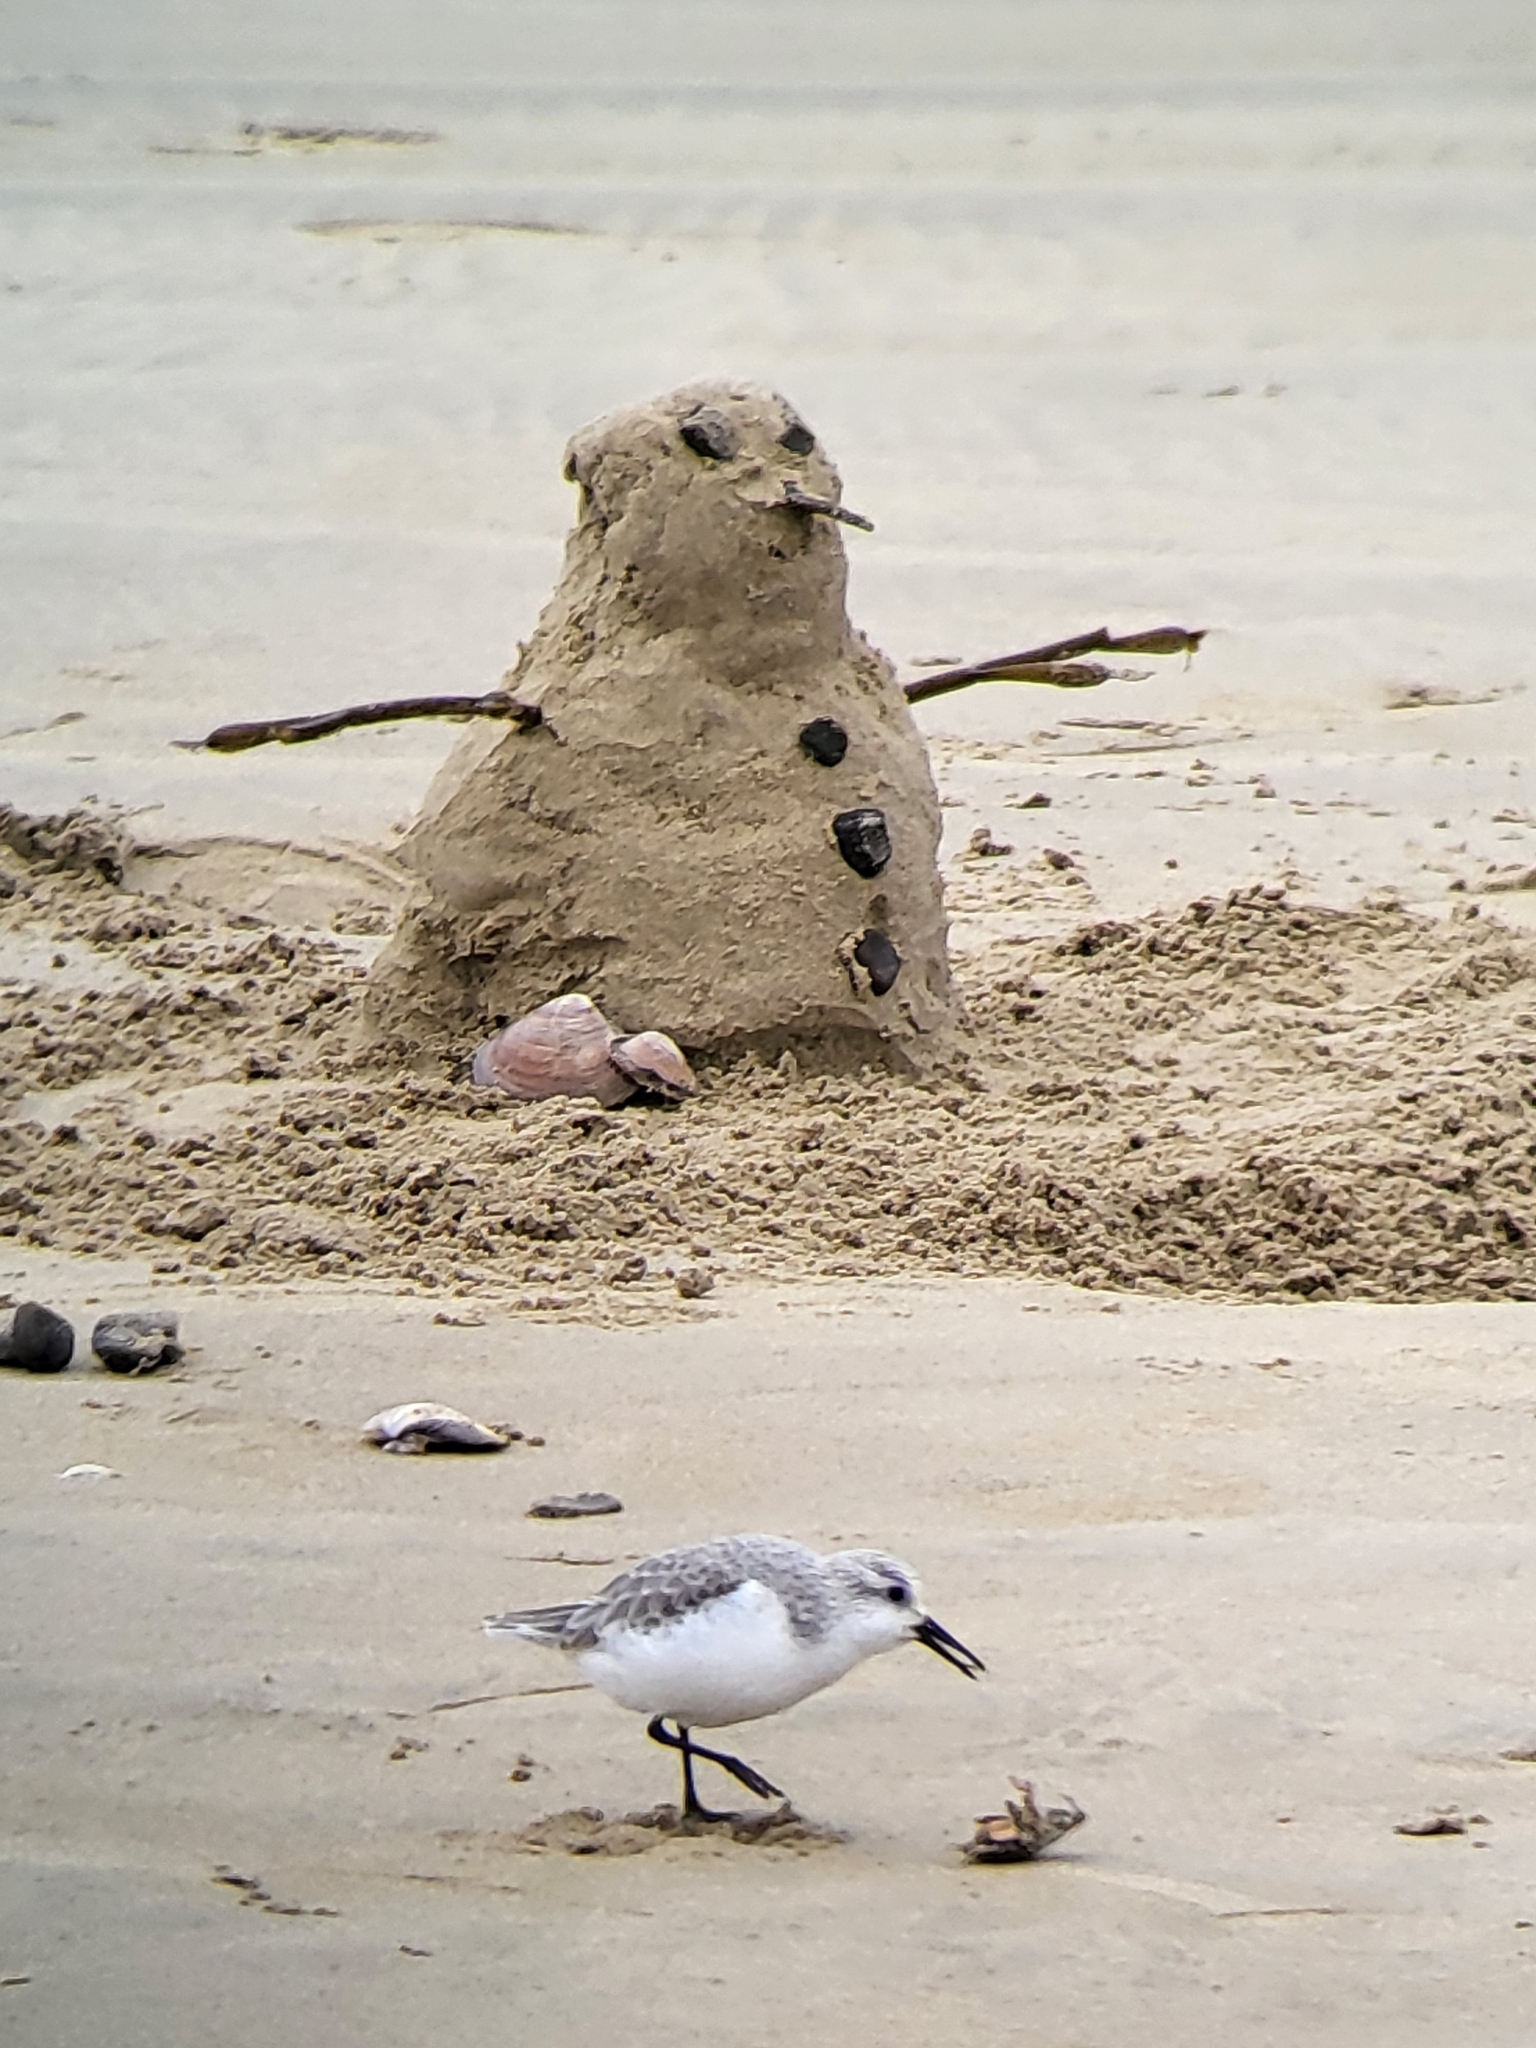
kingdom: Animalia
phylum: Chordata
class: Aves
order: Charadriiformes
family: Scolopacidae
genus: Calidris
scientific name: Calidris alba
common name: Sanderling
